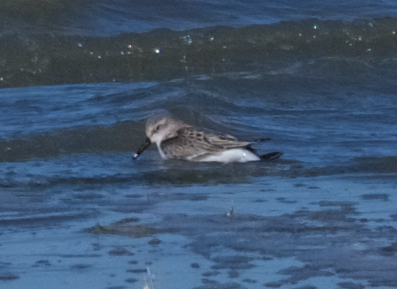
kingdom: Animalia
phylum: Chordata
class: Aves
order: Charadriiformes
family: Scolopacidae
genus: Calidris
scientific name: Calidris mauri
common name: Western sandpiper
